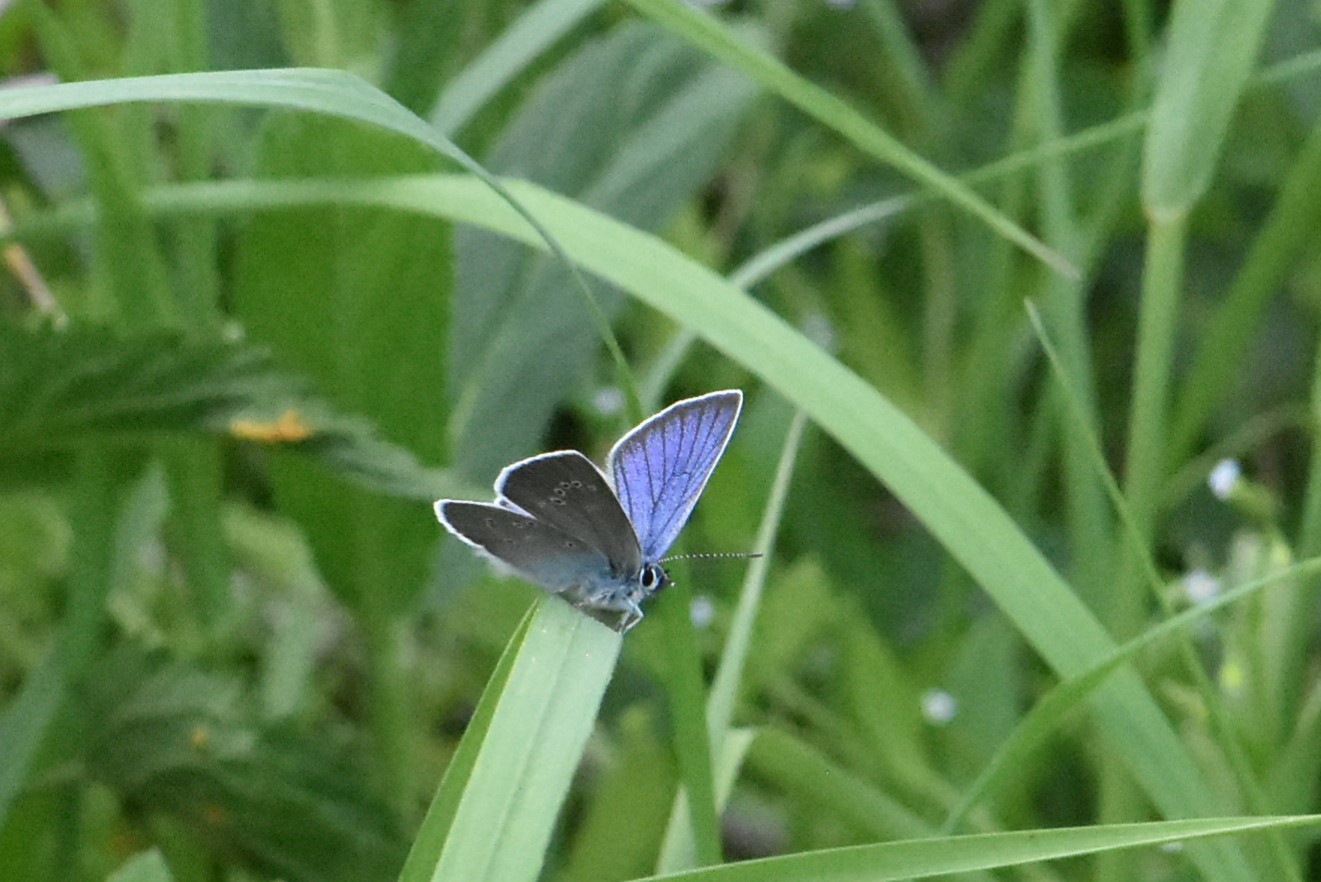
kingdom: Animalia
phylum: Arthropoda
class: Insecta
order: Lepidoptera
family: Lycaenidae
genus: Cyaniris
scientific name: Cyaniris semiargus
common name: Mazarine blue
